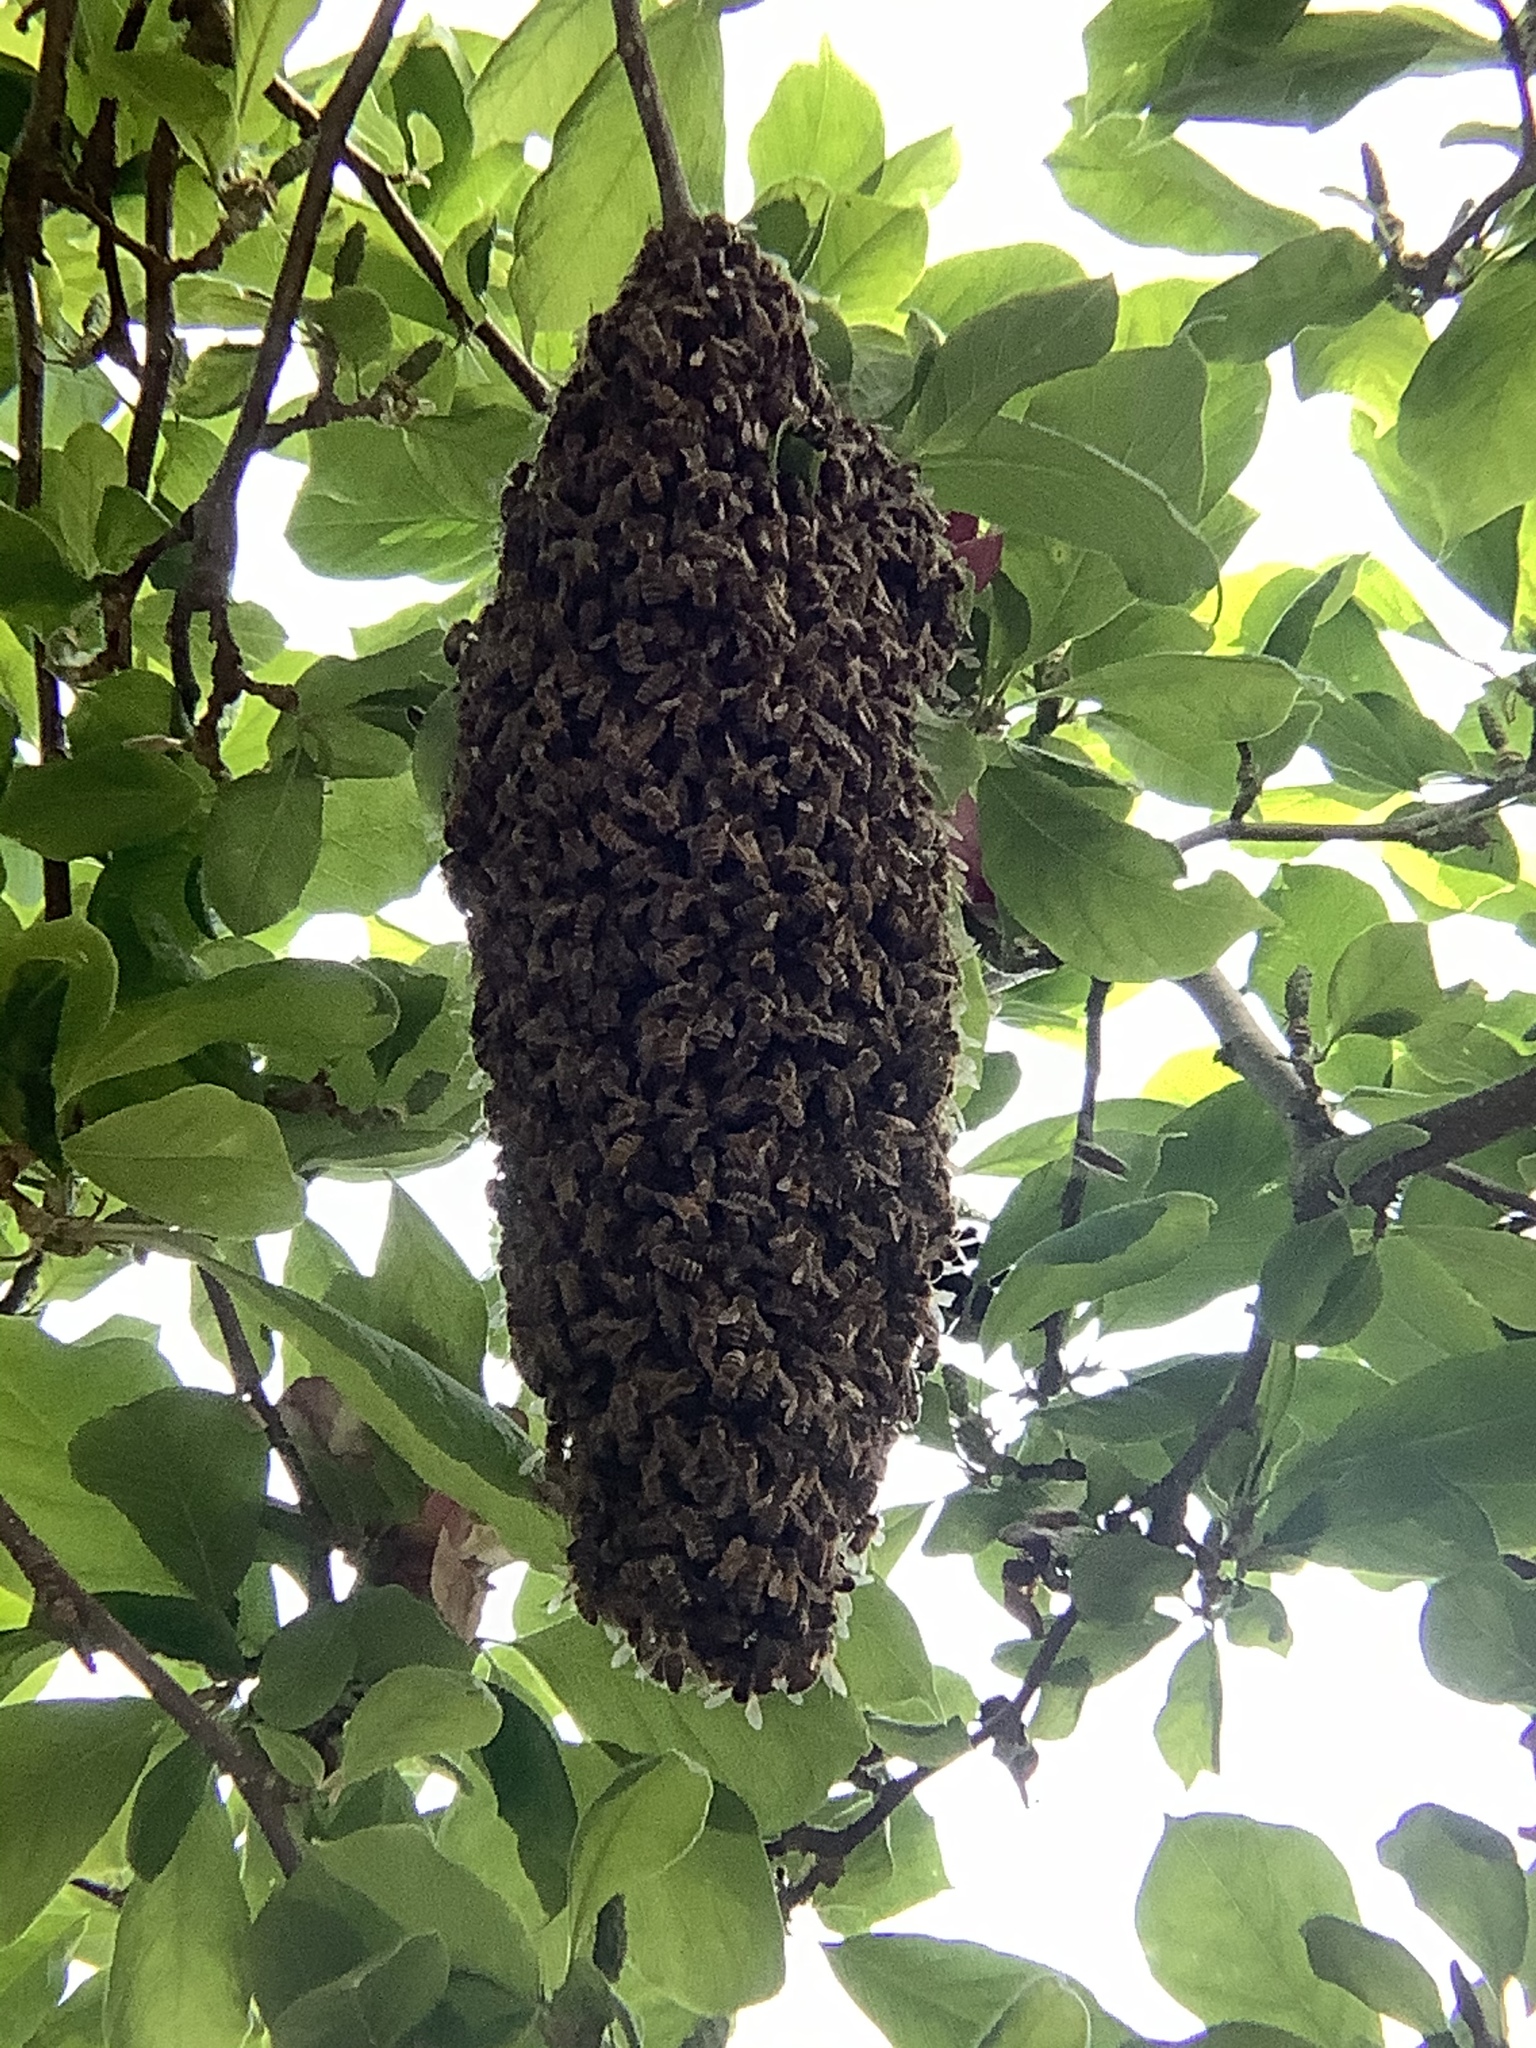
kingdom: Animalia
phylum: Arthropoda
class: Insecta
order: Hymenoptera
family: Apidae
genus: Apis
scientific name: Apis mellifera
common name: Honey bee
